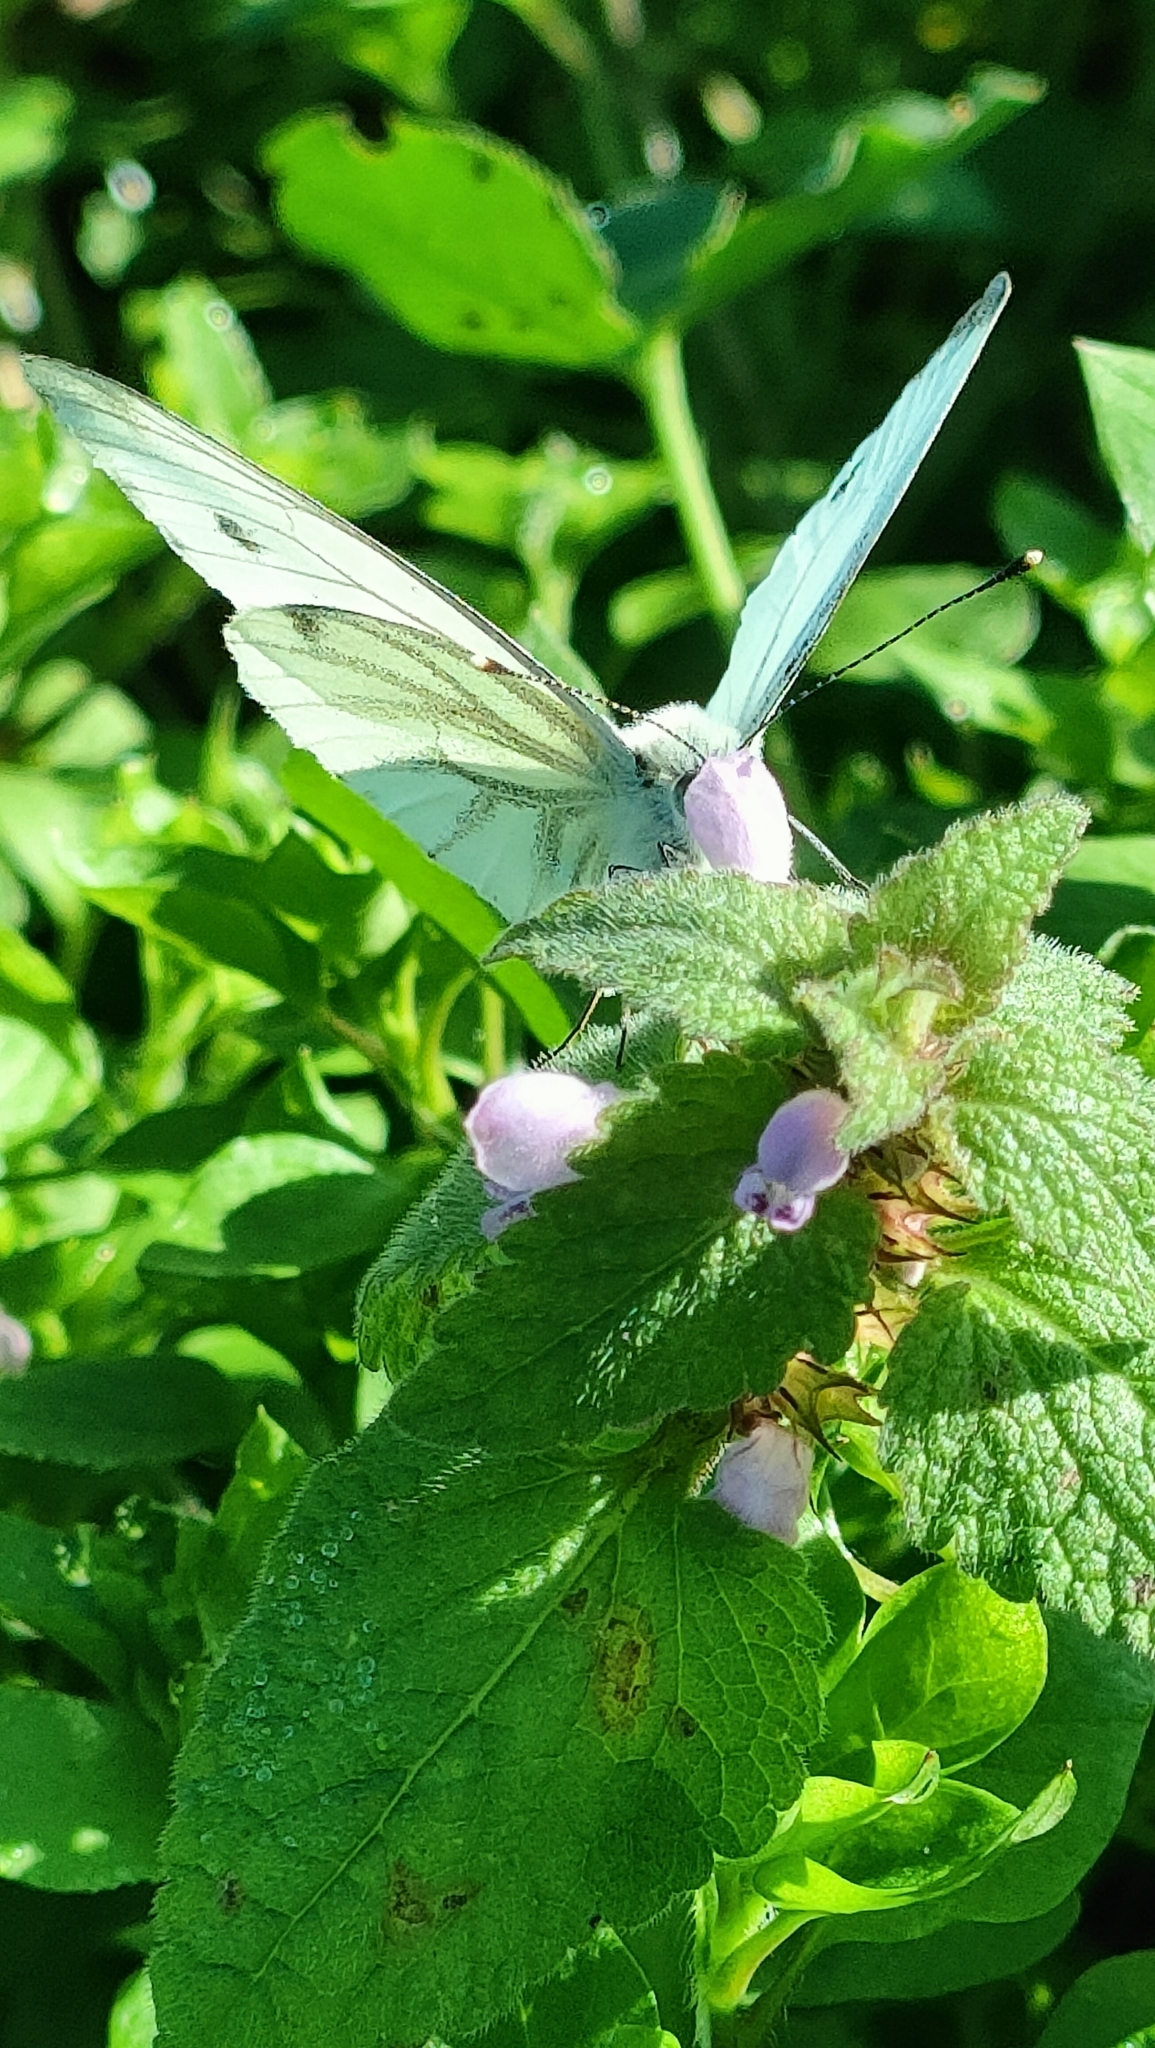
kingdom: Animalia
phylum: Arthropoda
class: Insecta
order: Lepidoptera
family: Pieridae
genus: Pieris
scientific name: Pieris napi
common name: Green-veined white
